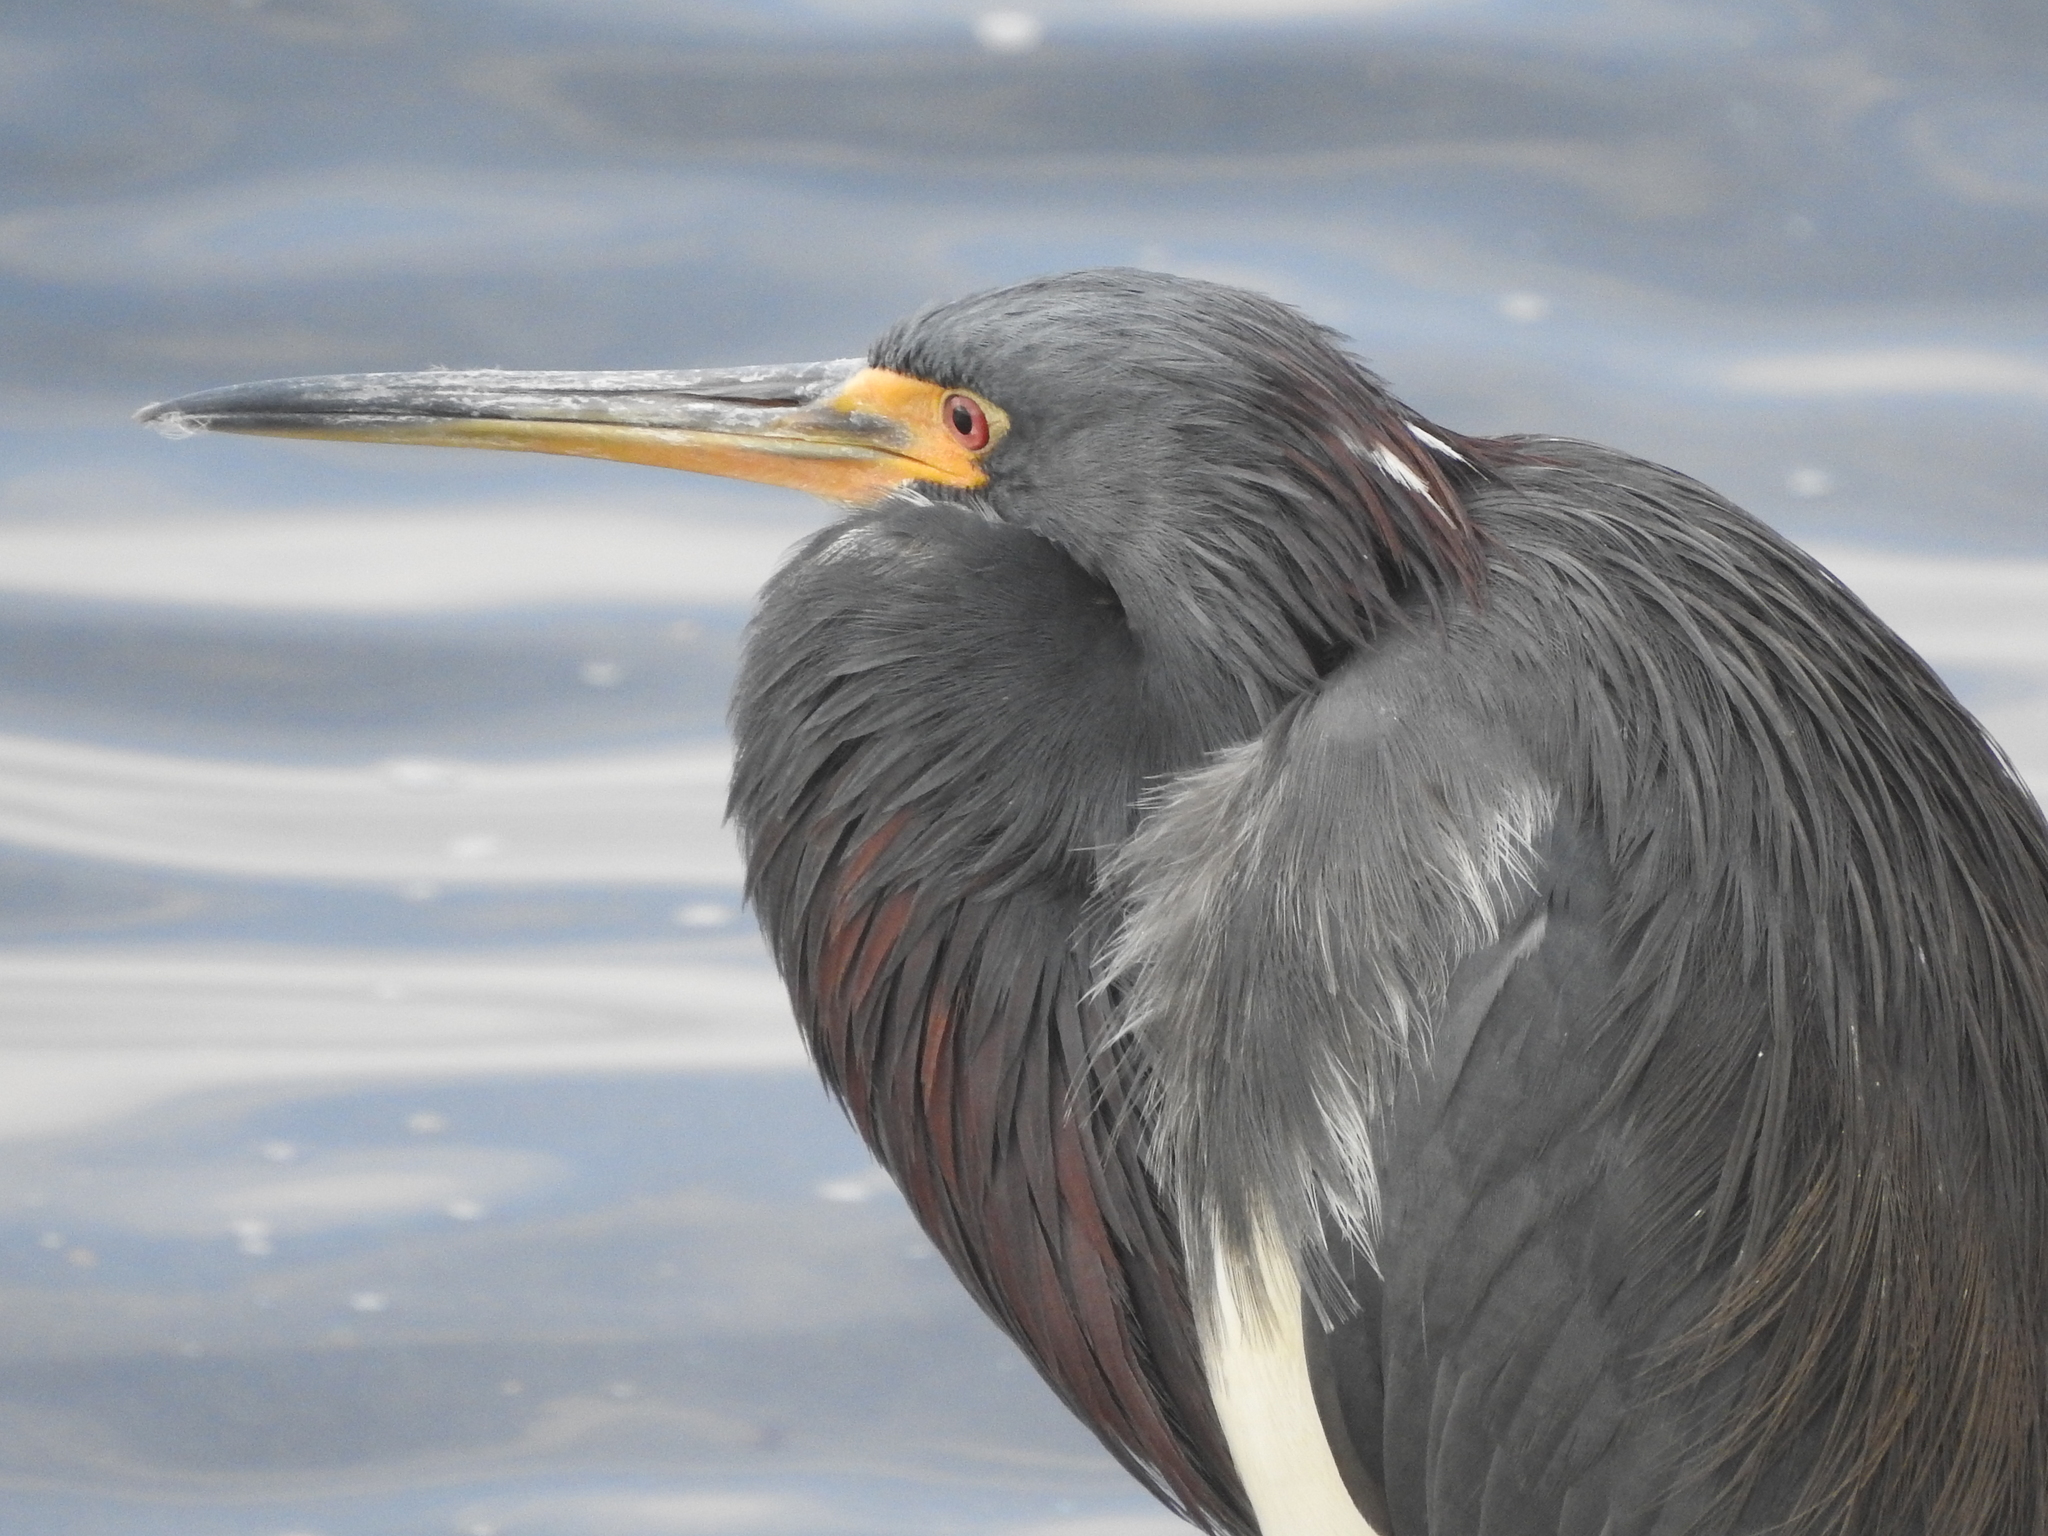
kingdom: Animalia
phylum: Chordata
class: Aves
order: Pelecaniformes
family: Ardeidae
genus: Egretta
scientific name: Egretta tricolor
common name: Tricolored heron
